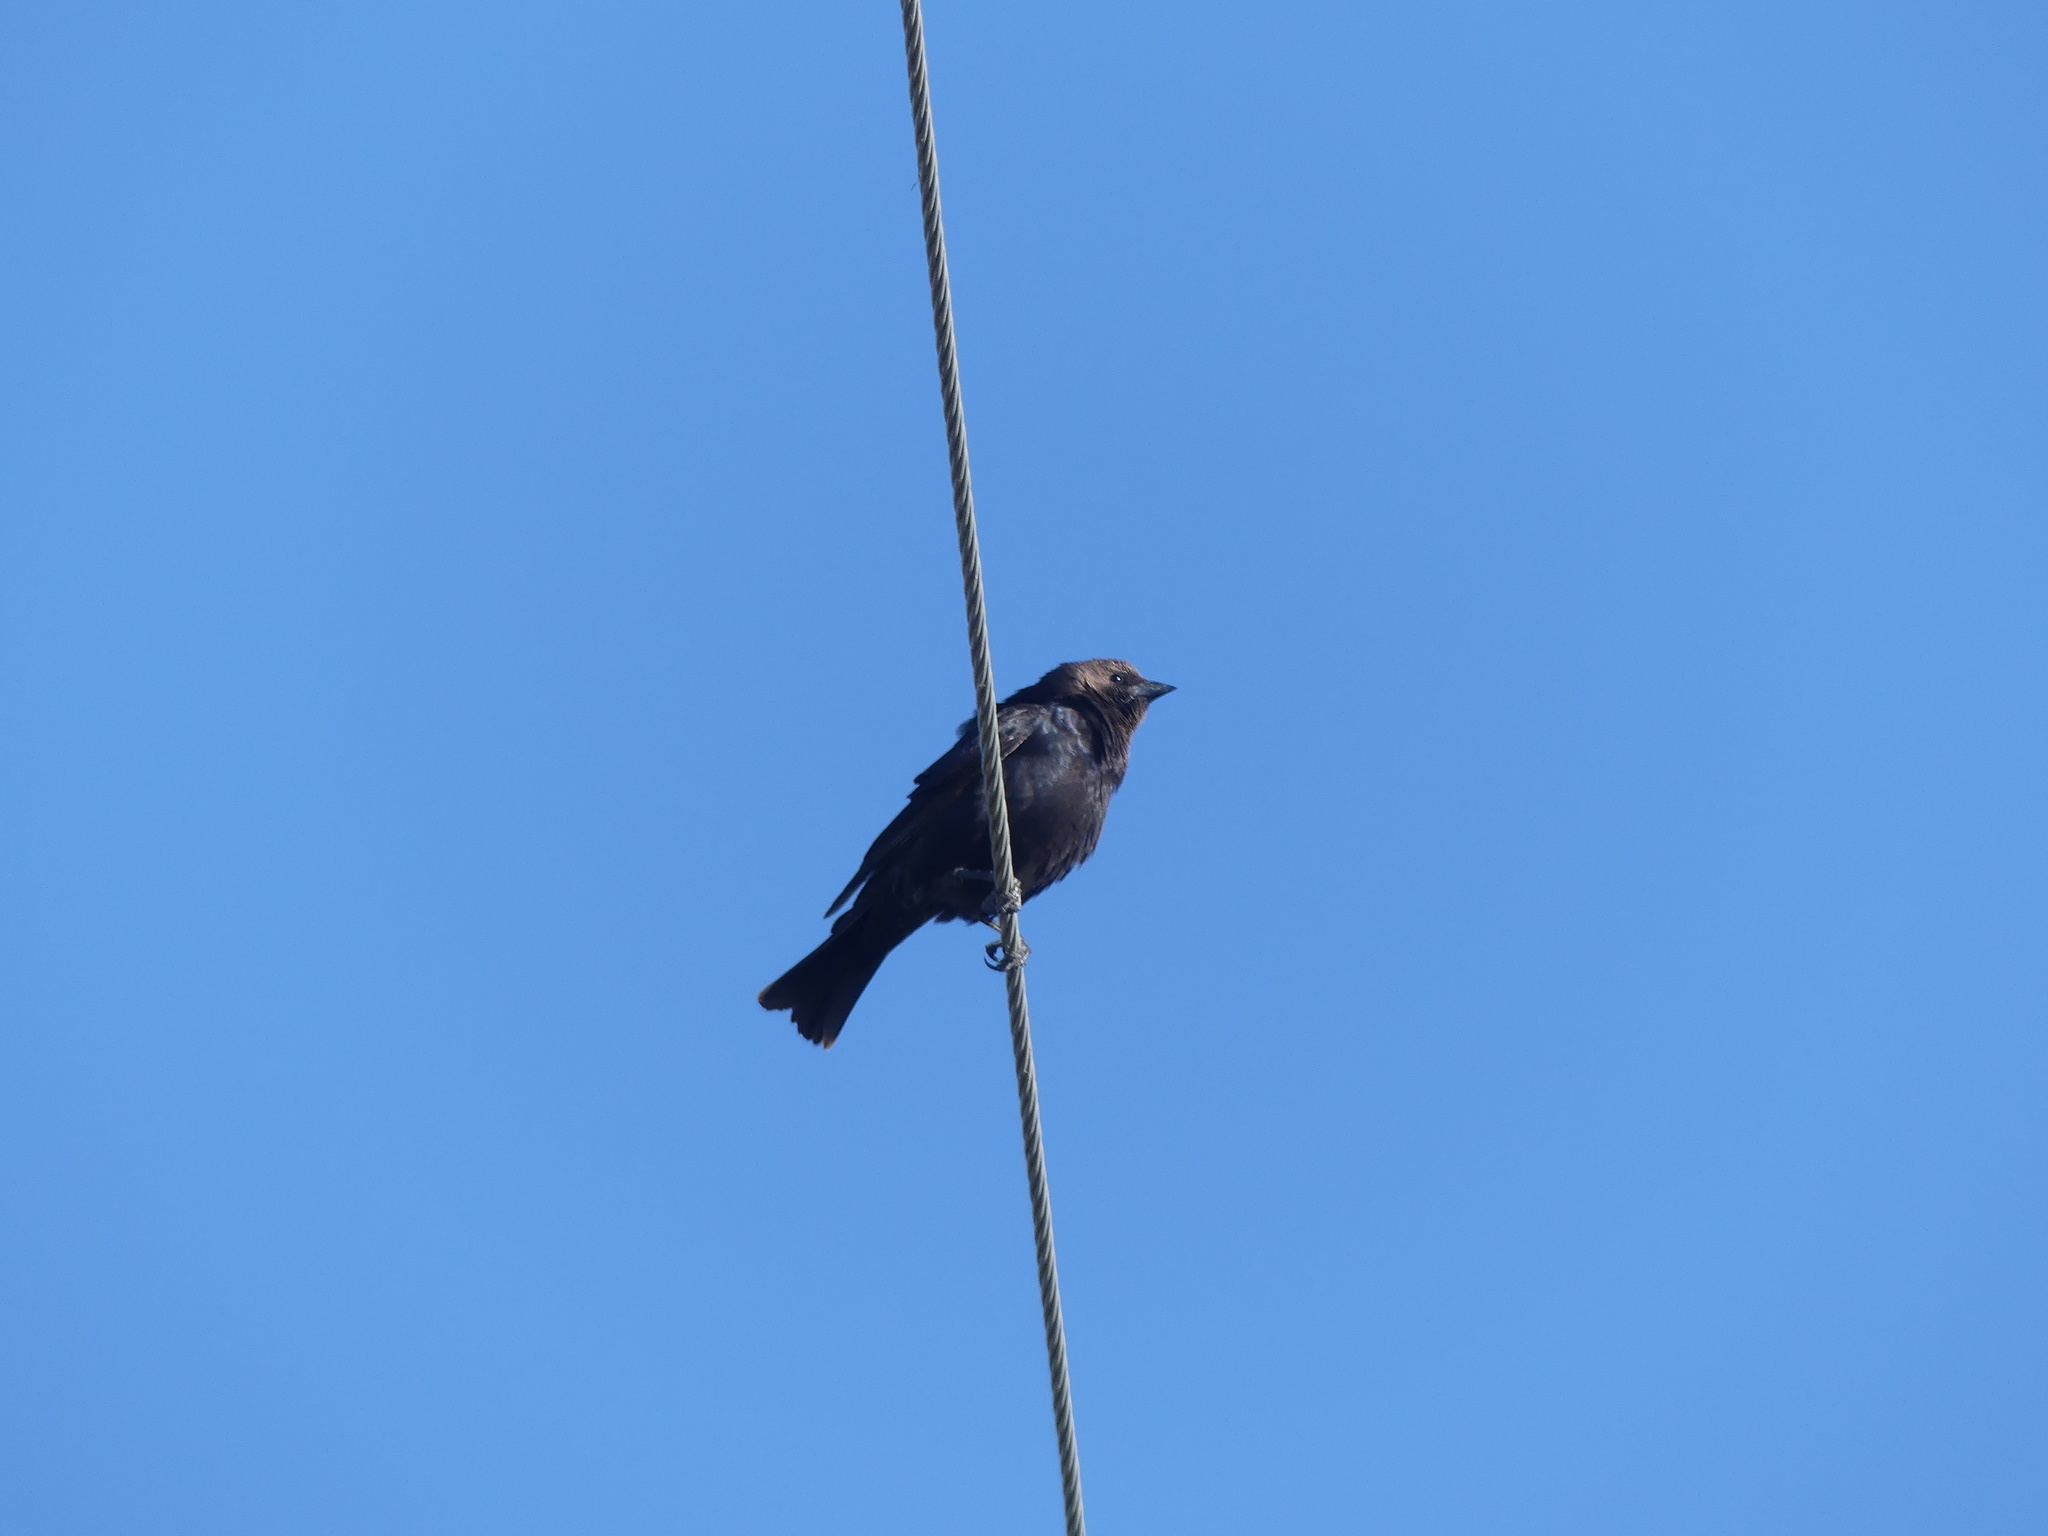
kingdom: Animalia
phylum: Chordata
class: Aves
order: Passeriformes
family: Icteridae
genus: Molothrus
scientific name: Molothrus ater
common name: Brown-headed cowbird
